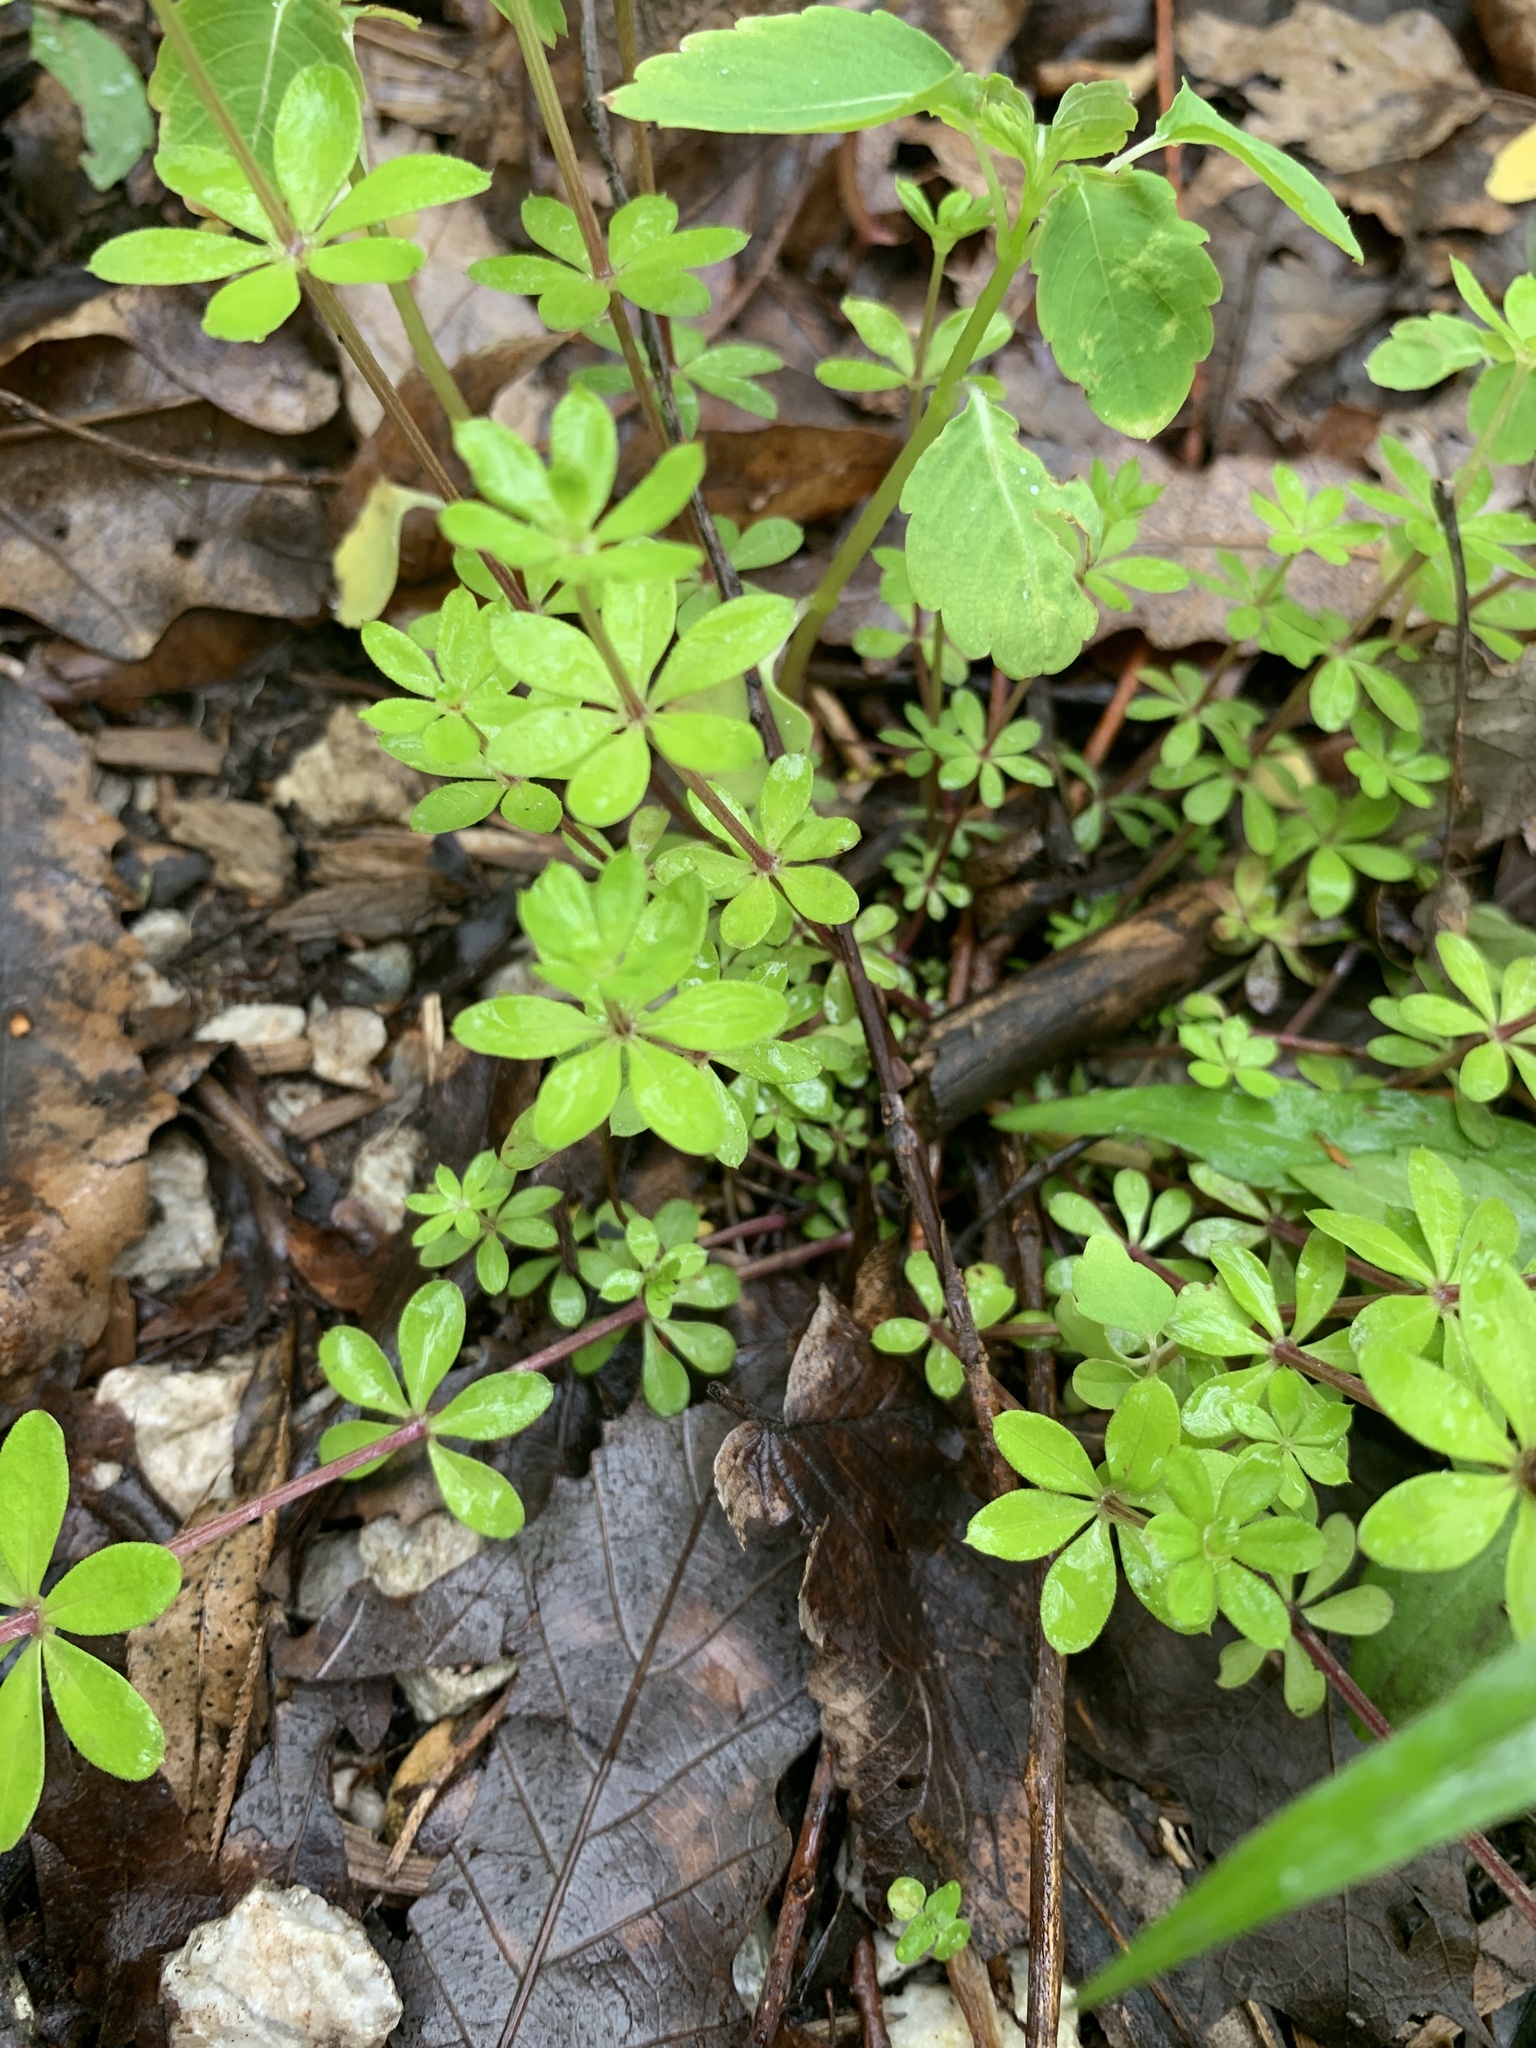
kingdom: Plantae
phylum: Tracheophyta
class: Magnoliopsida
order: Gentianales
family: Rubiaceae
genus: Galium
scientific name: Galium triflorum
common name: Fragrant bedstraw
